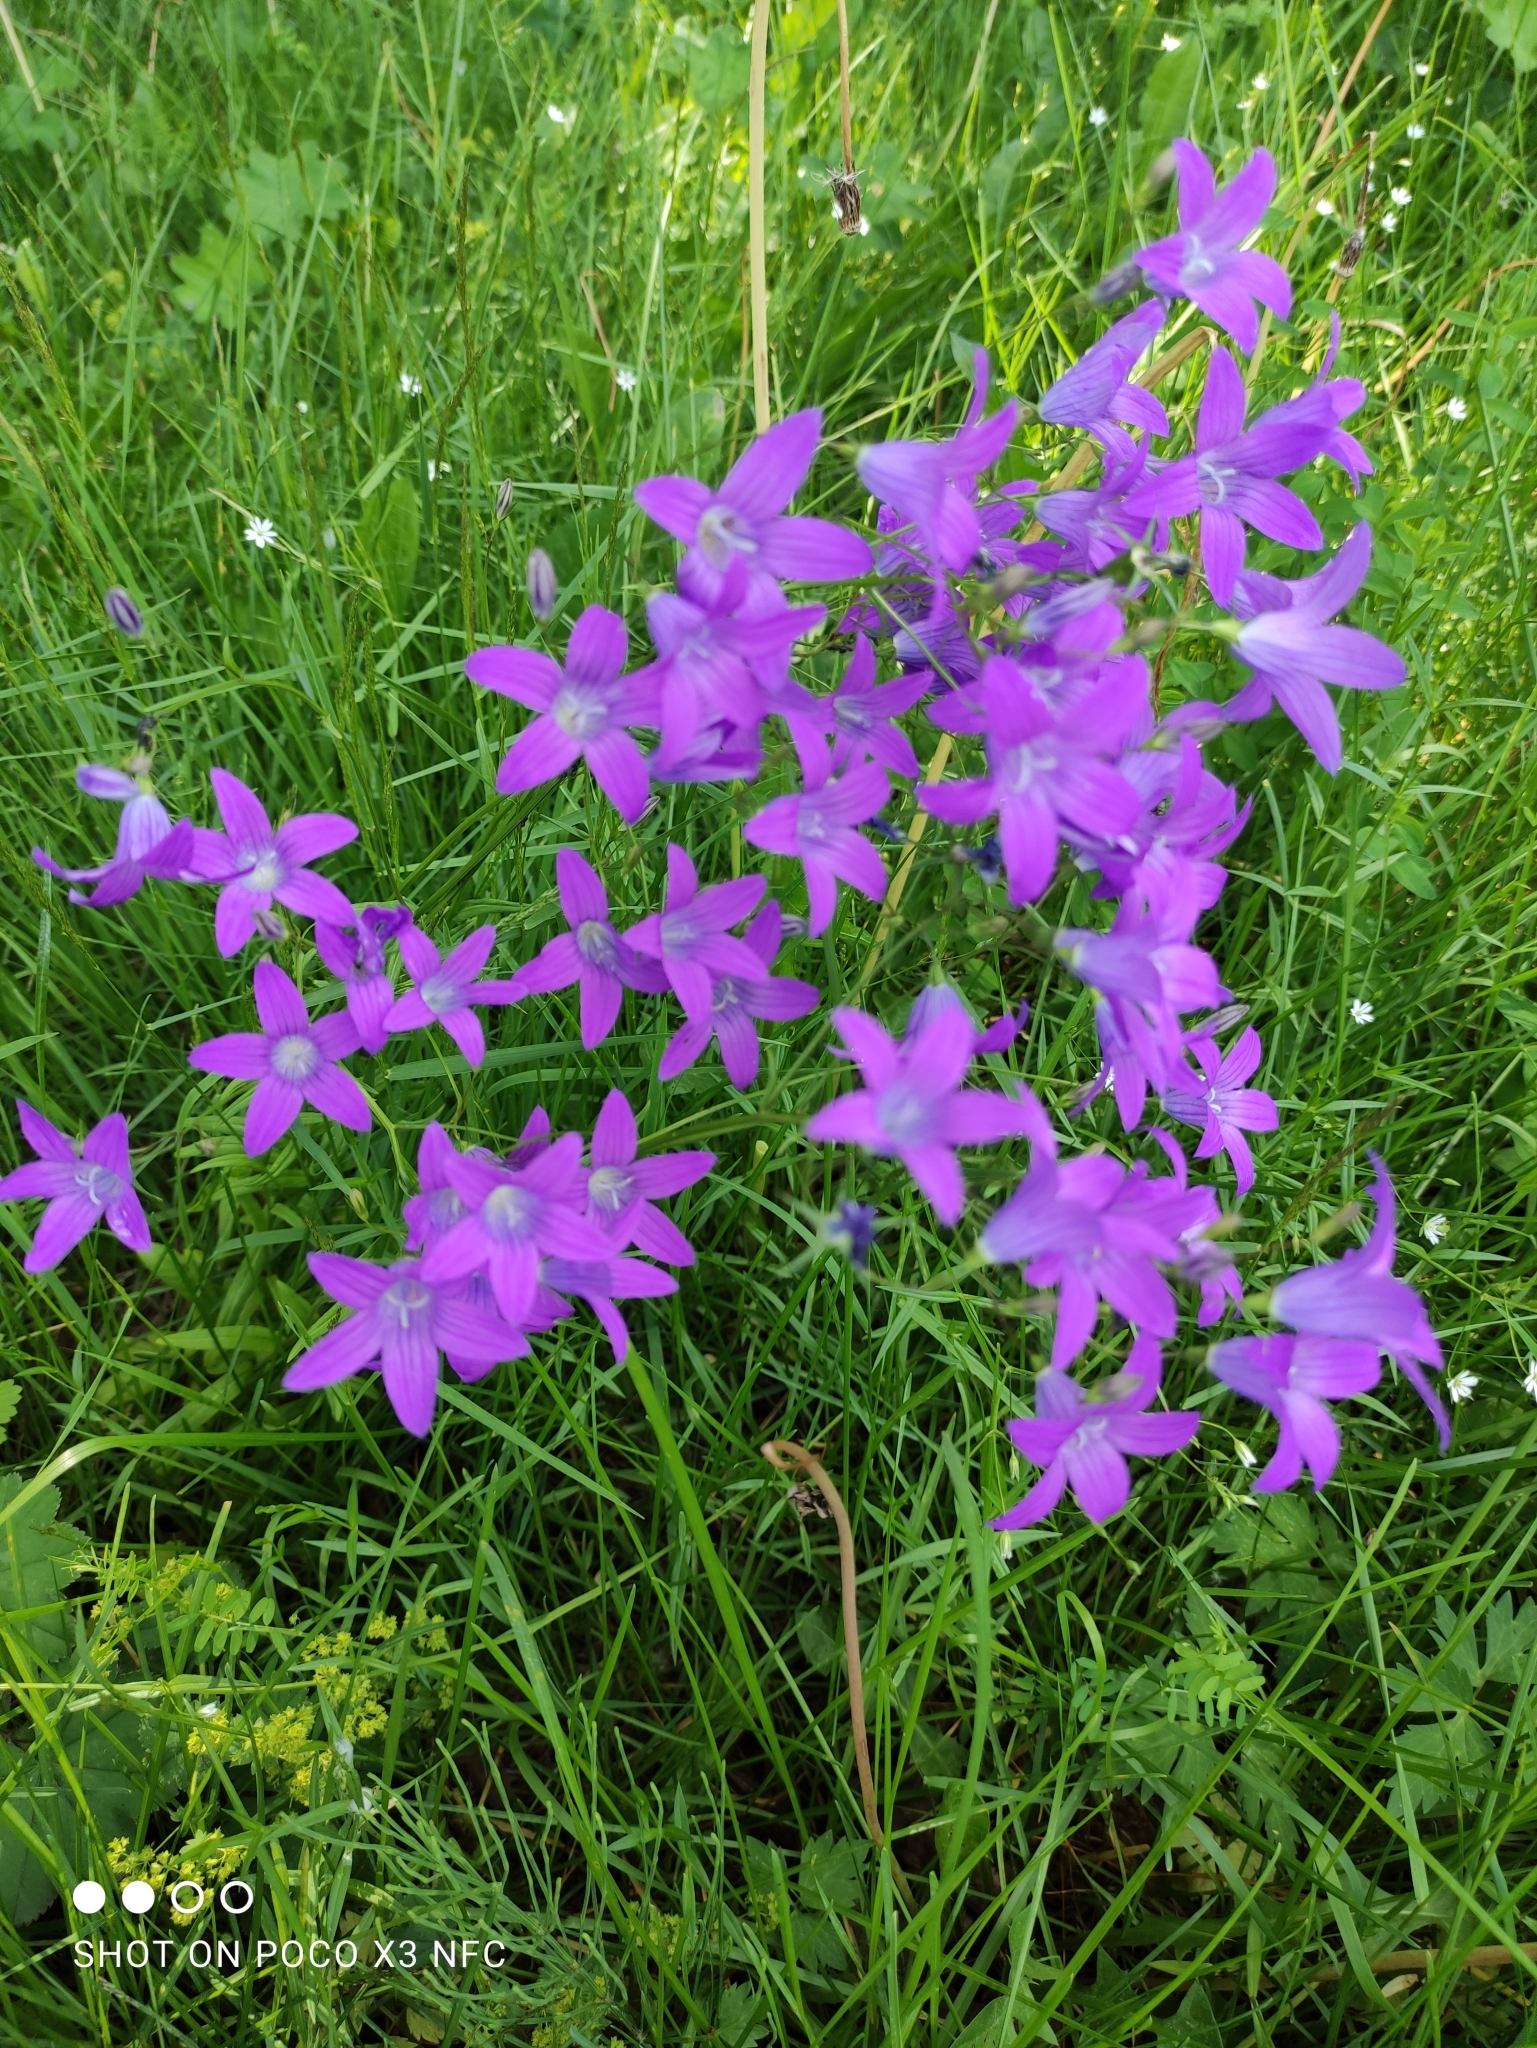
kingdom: Plantae
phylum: Tracheophyta
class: Magnoliopsida
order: Asterales
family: Campanulaceae
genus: Campanula
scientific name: Campanula patula
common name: Spreading bellflower
